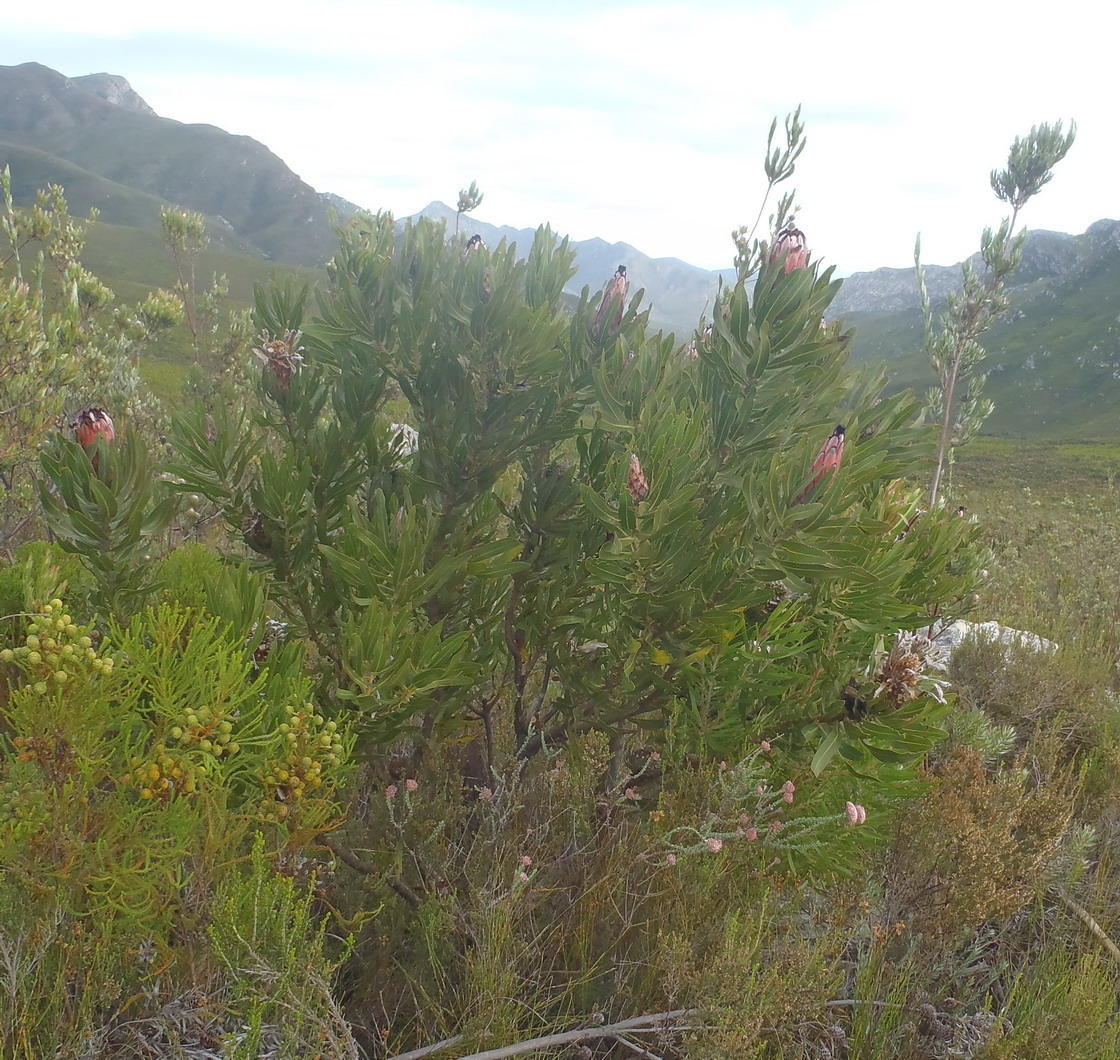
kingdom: Plantae
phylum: Tracheophyta
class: Magnoliopsida
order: Proteales
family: Proteaceae
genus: Protea
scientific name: Protea neriifolia
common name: Blue sugarbush
